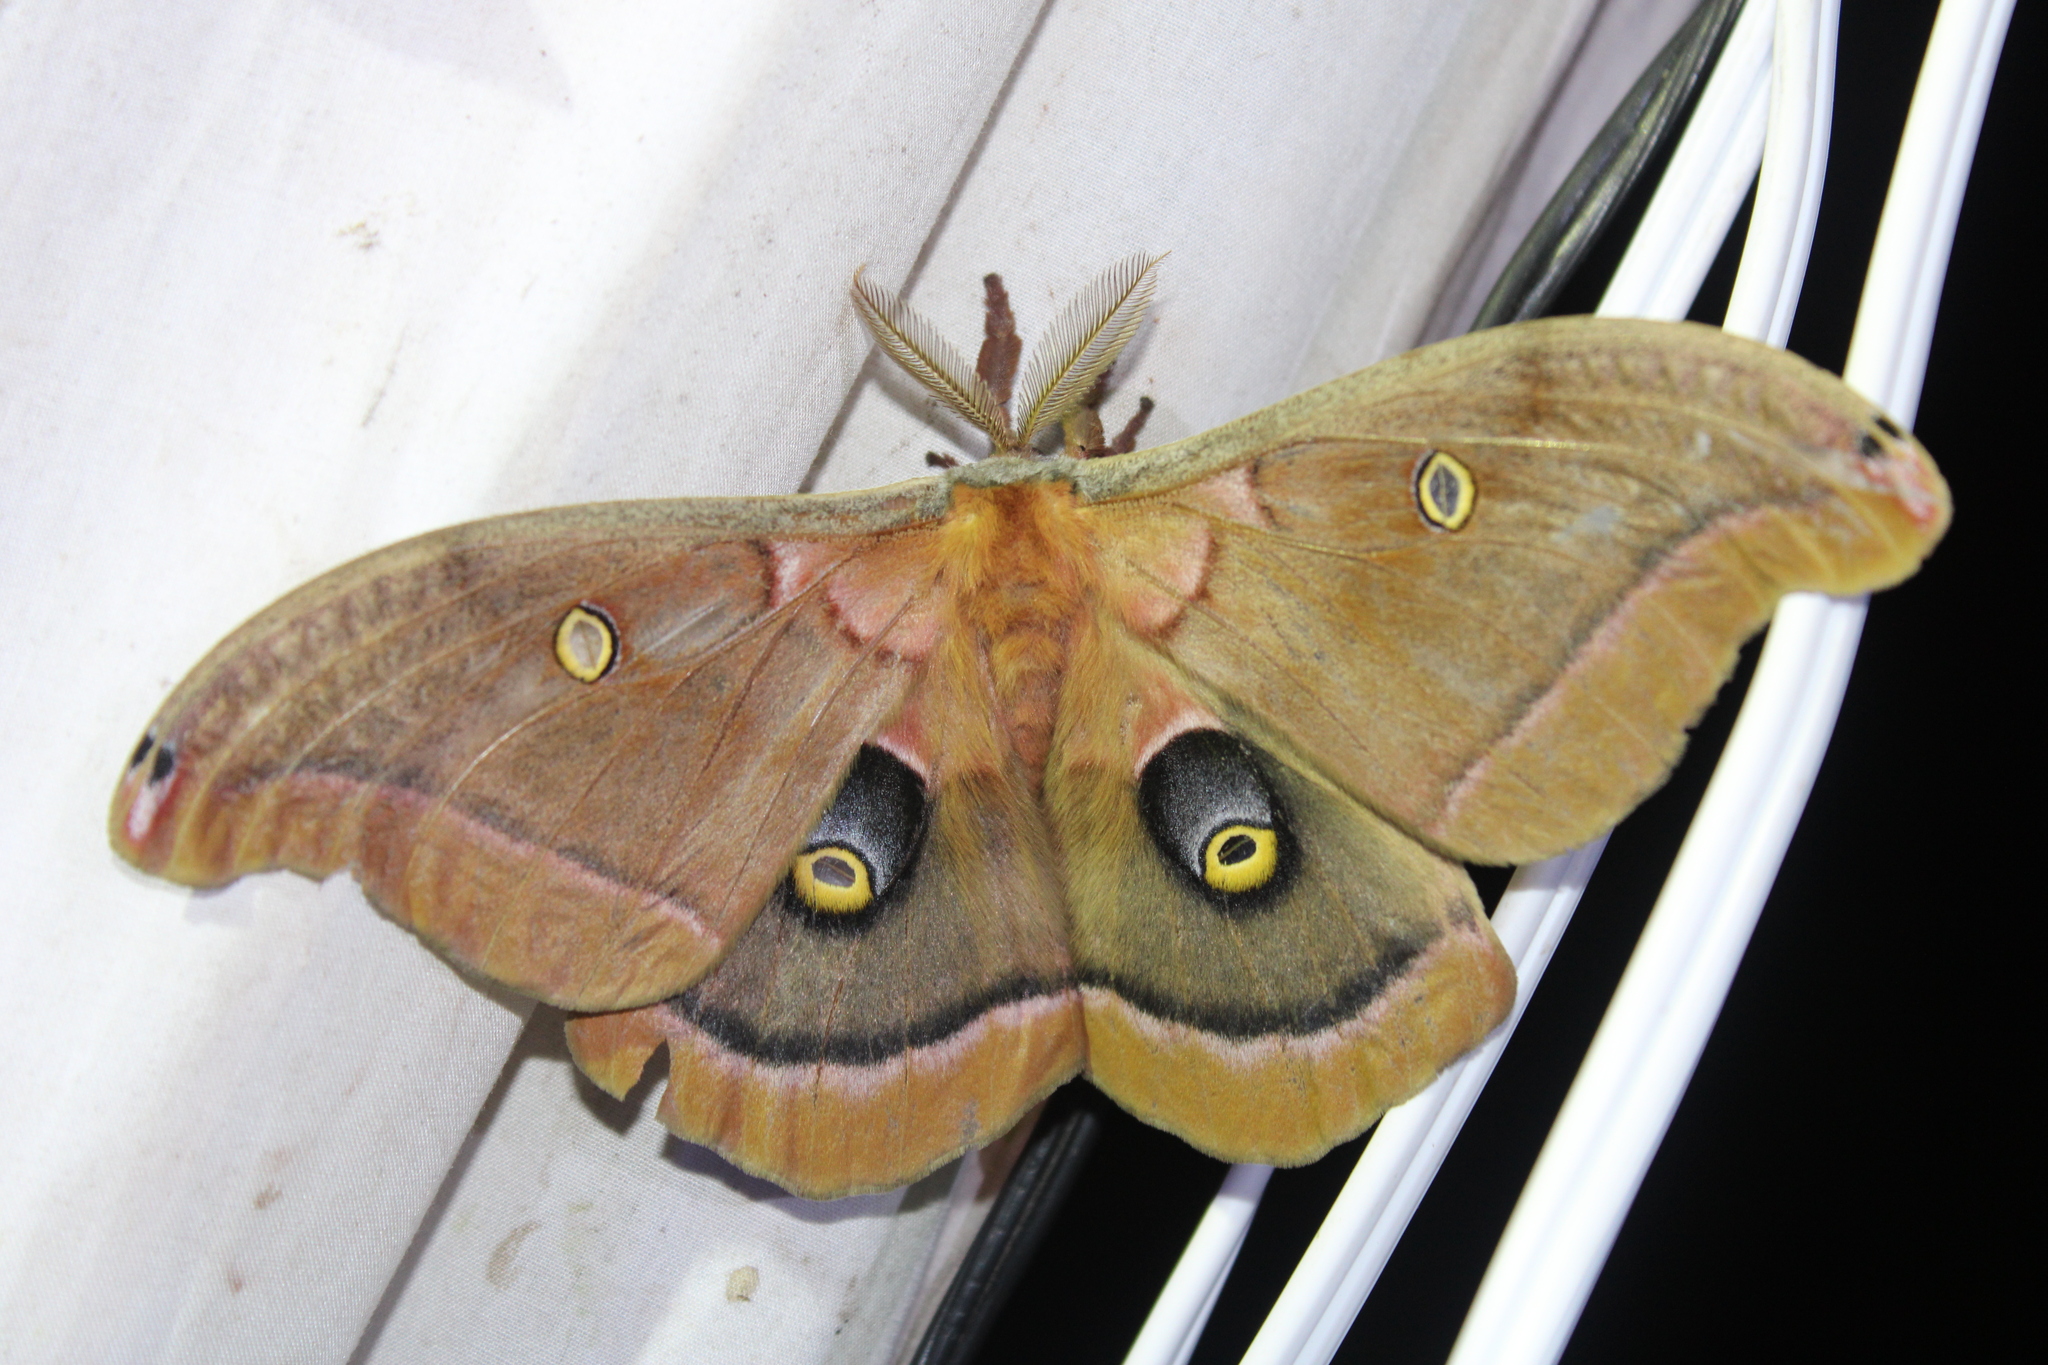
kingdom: Animalia
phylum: Arthropoda
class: Insecta
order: Lepidoptera
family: Saturniidae
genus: Antheraea
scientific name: Antheraea polyphemus
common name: Polyphemus moth
